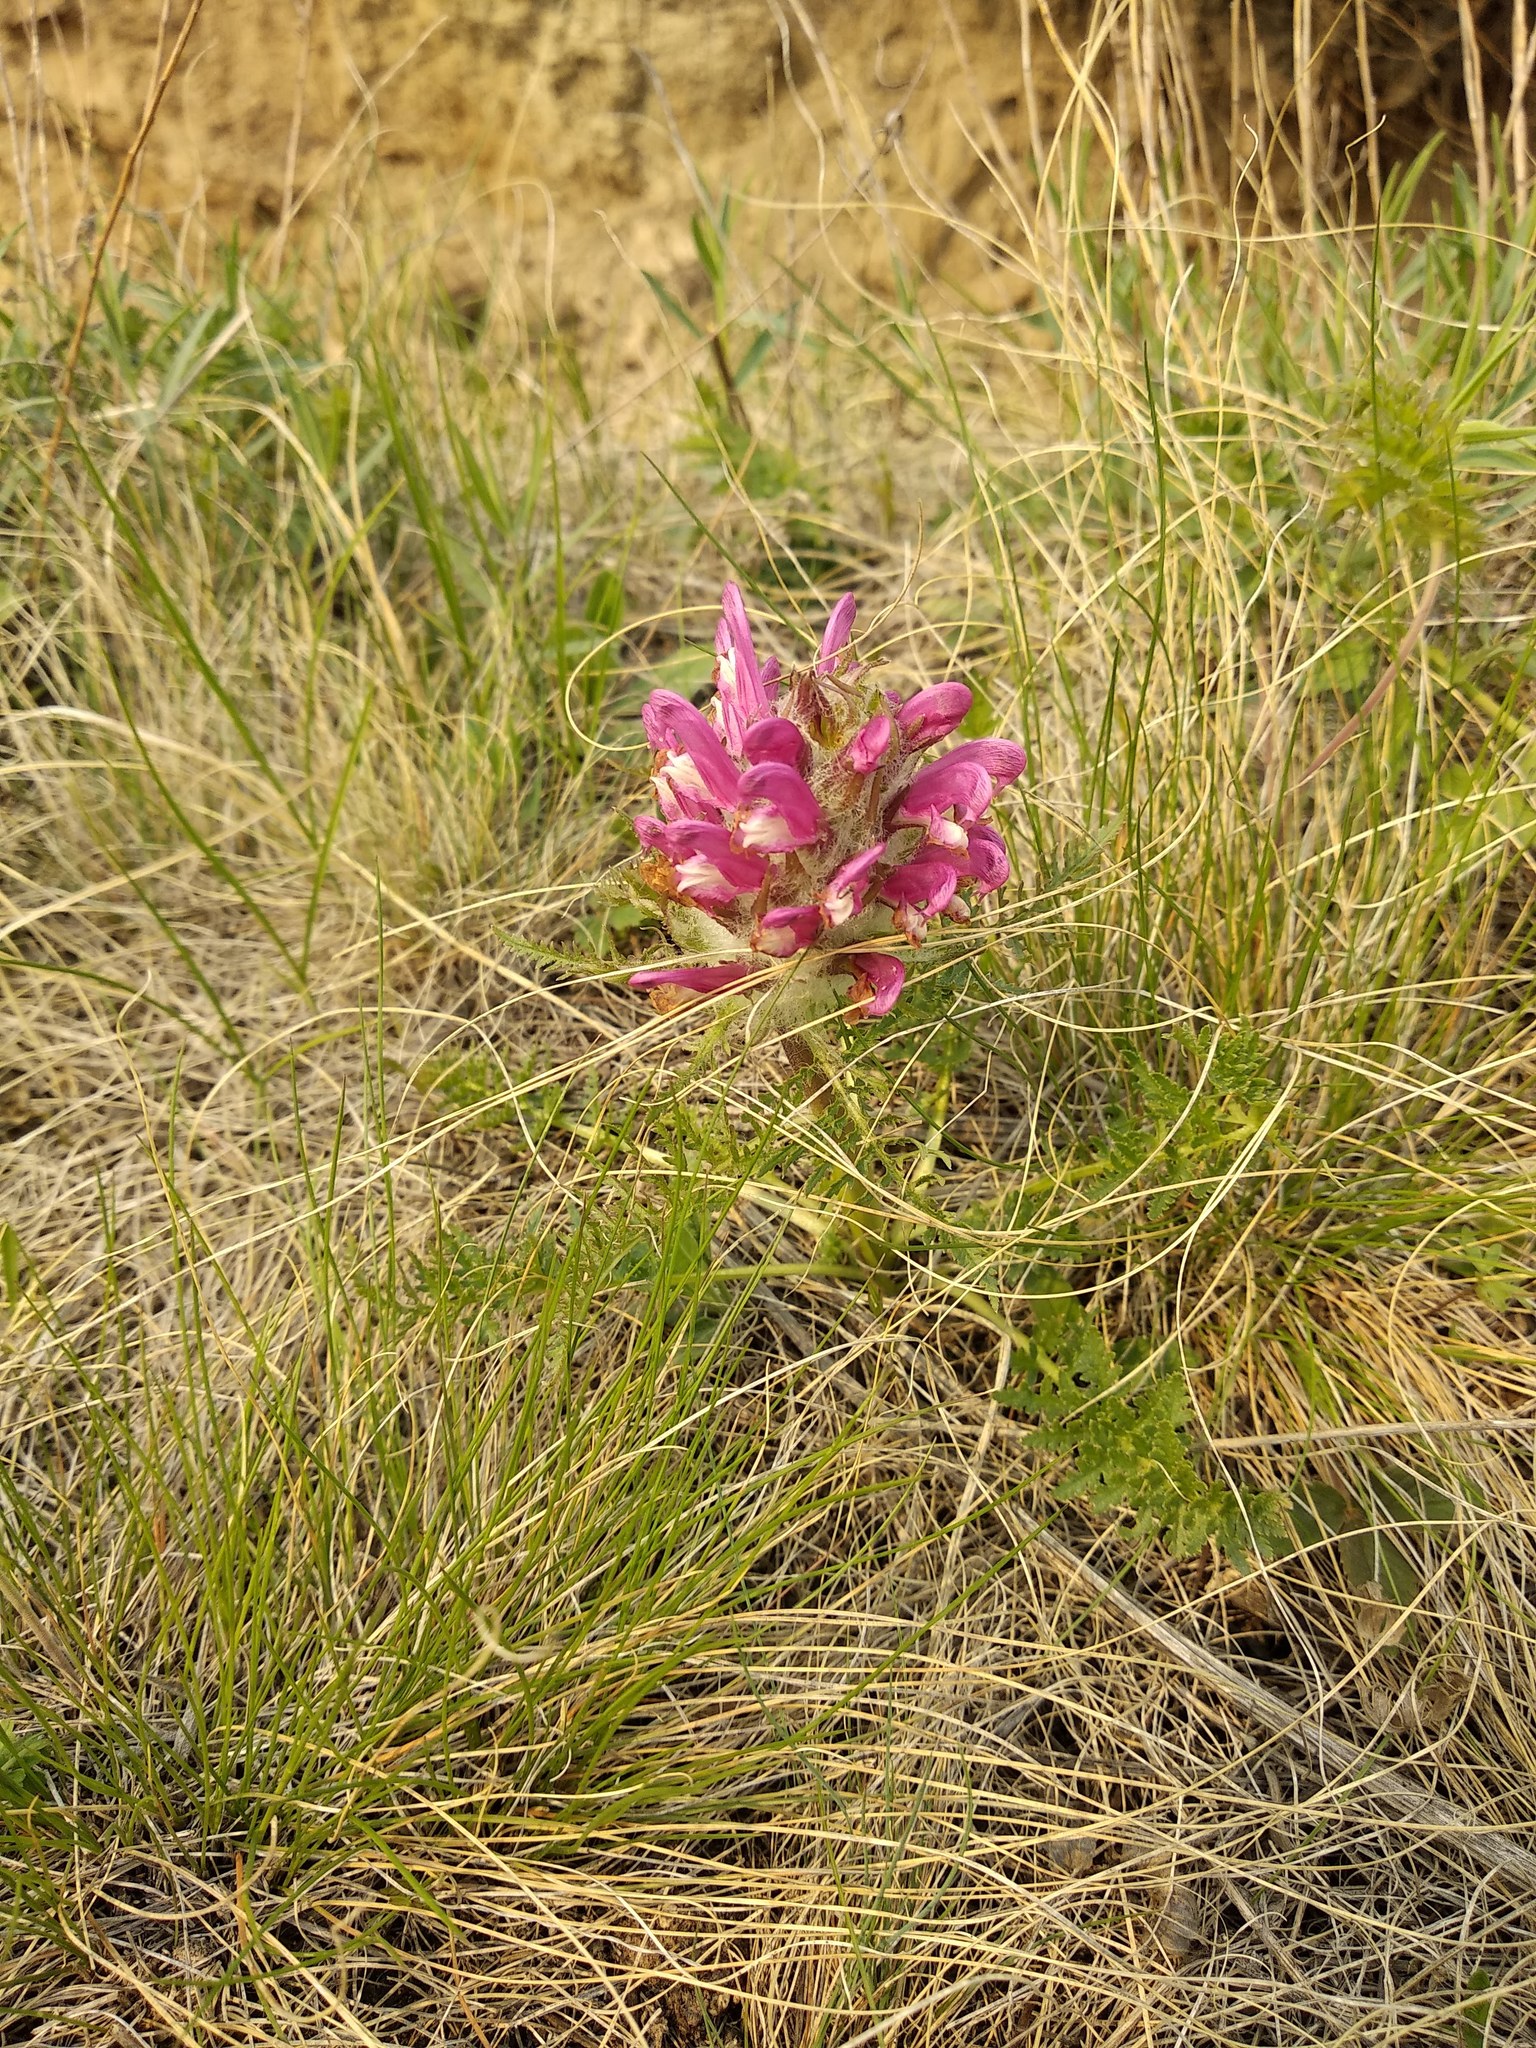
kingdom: Plantae
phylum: Tracheophyta
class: Magnoliopsida
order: Lamiales
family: Orobanchaceae
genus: Pedicularis
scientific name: Pedicularis dasystachys
